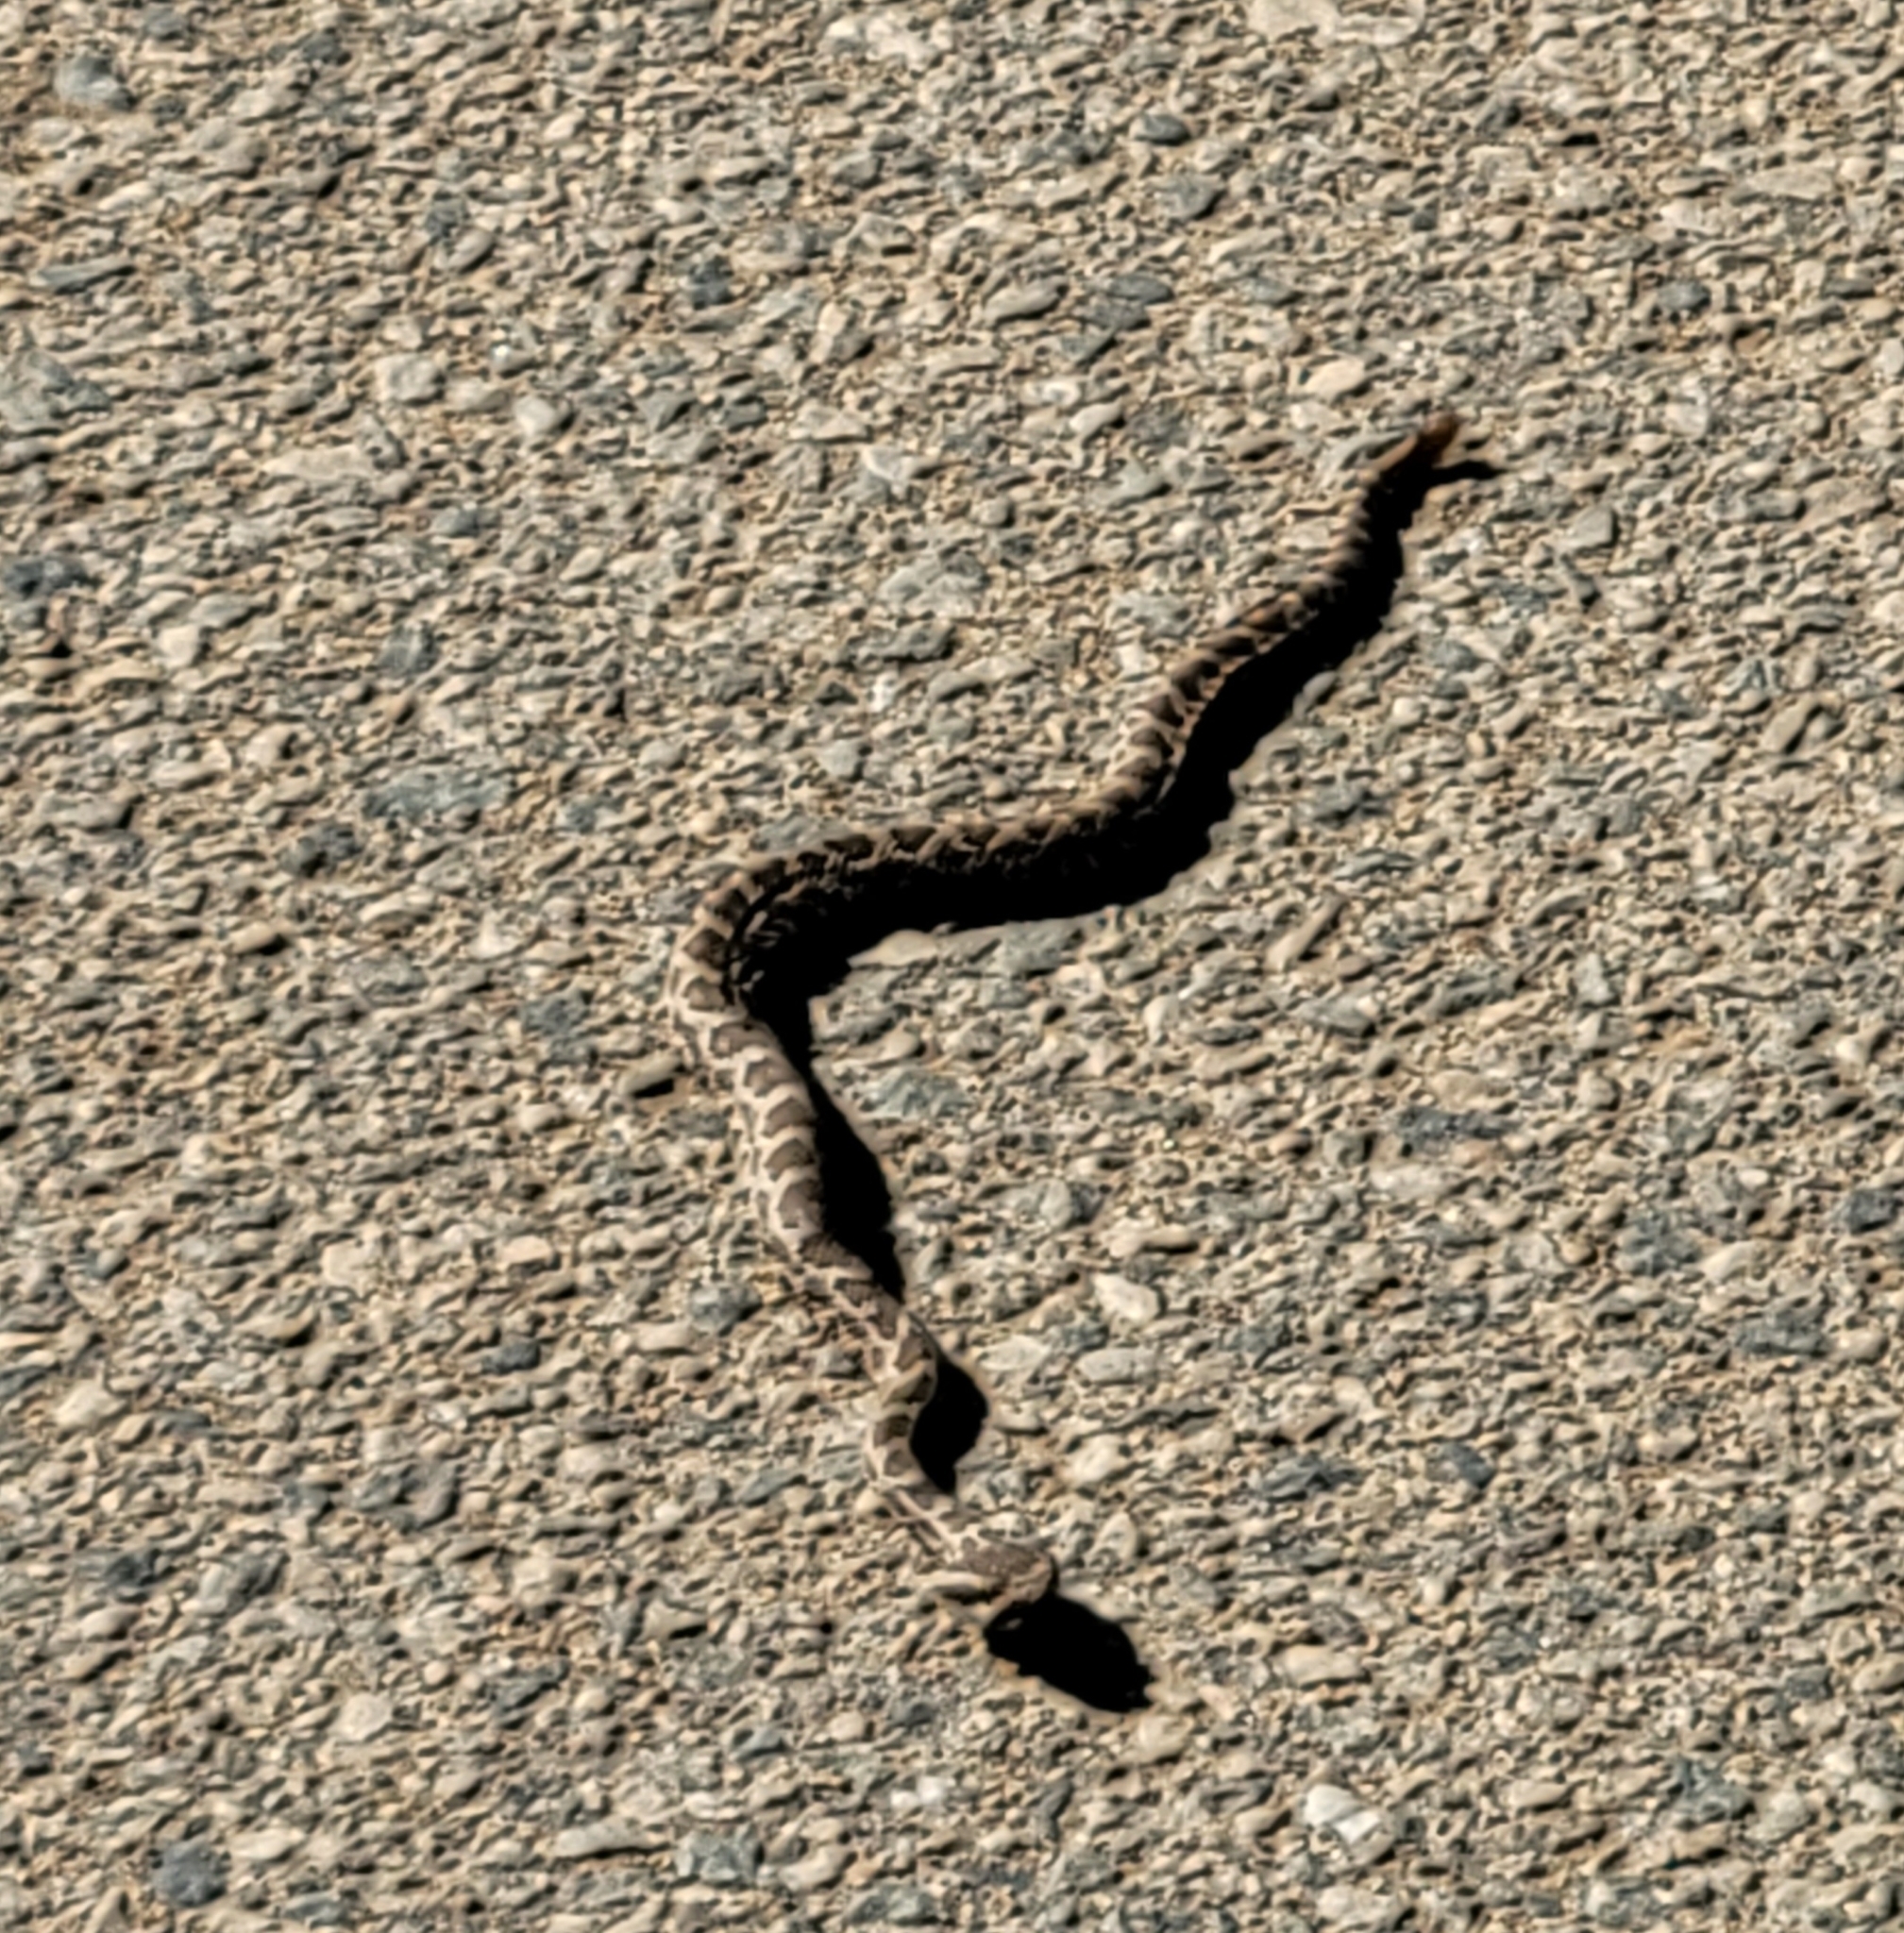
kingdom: Animalia
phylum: Chordata
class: Squamata
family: Viperidae
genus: Crotalus
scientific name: Crotalus oreganus
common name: Abyssus
